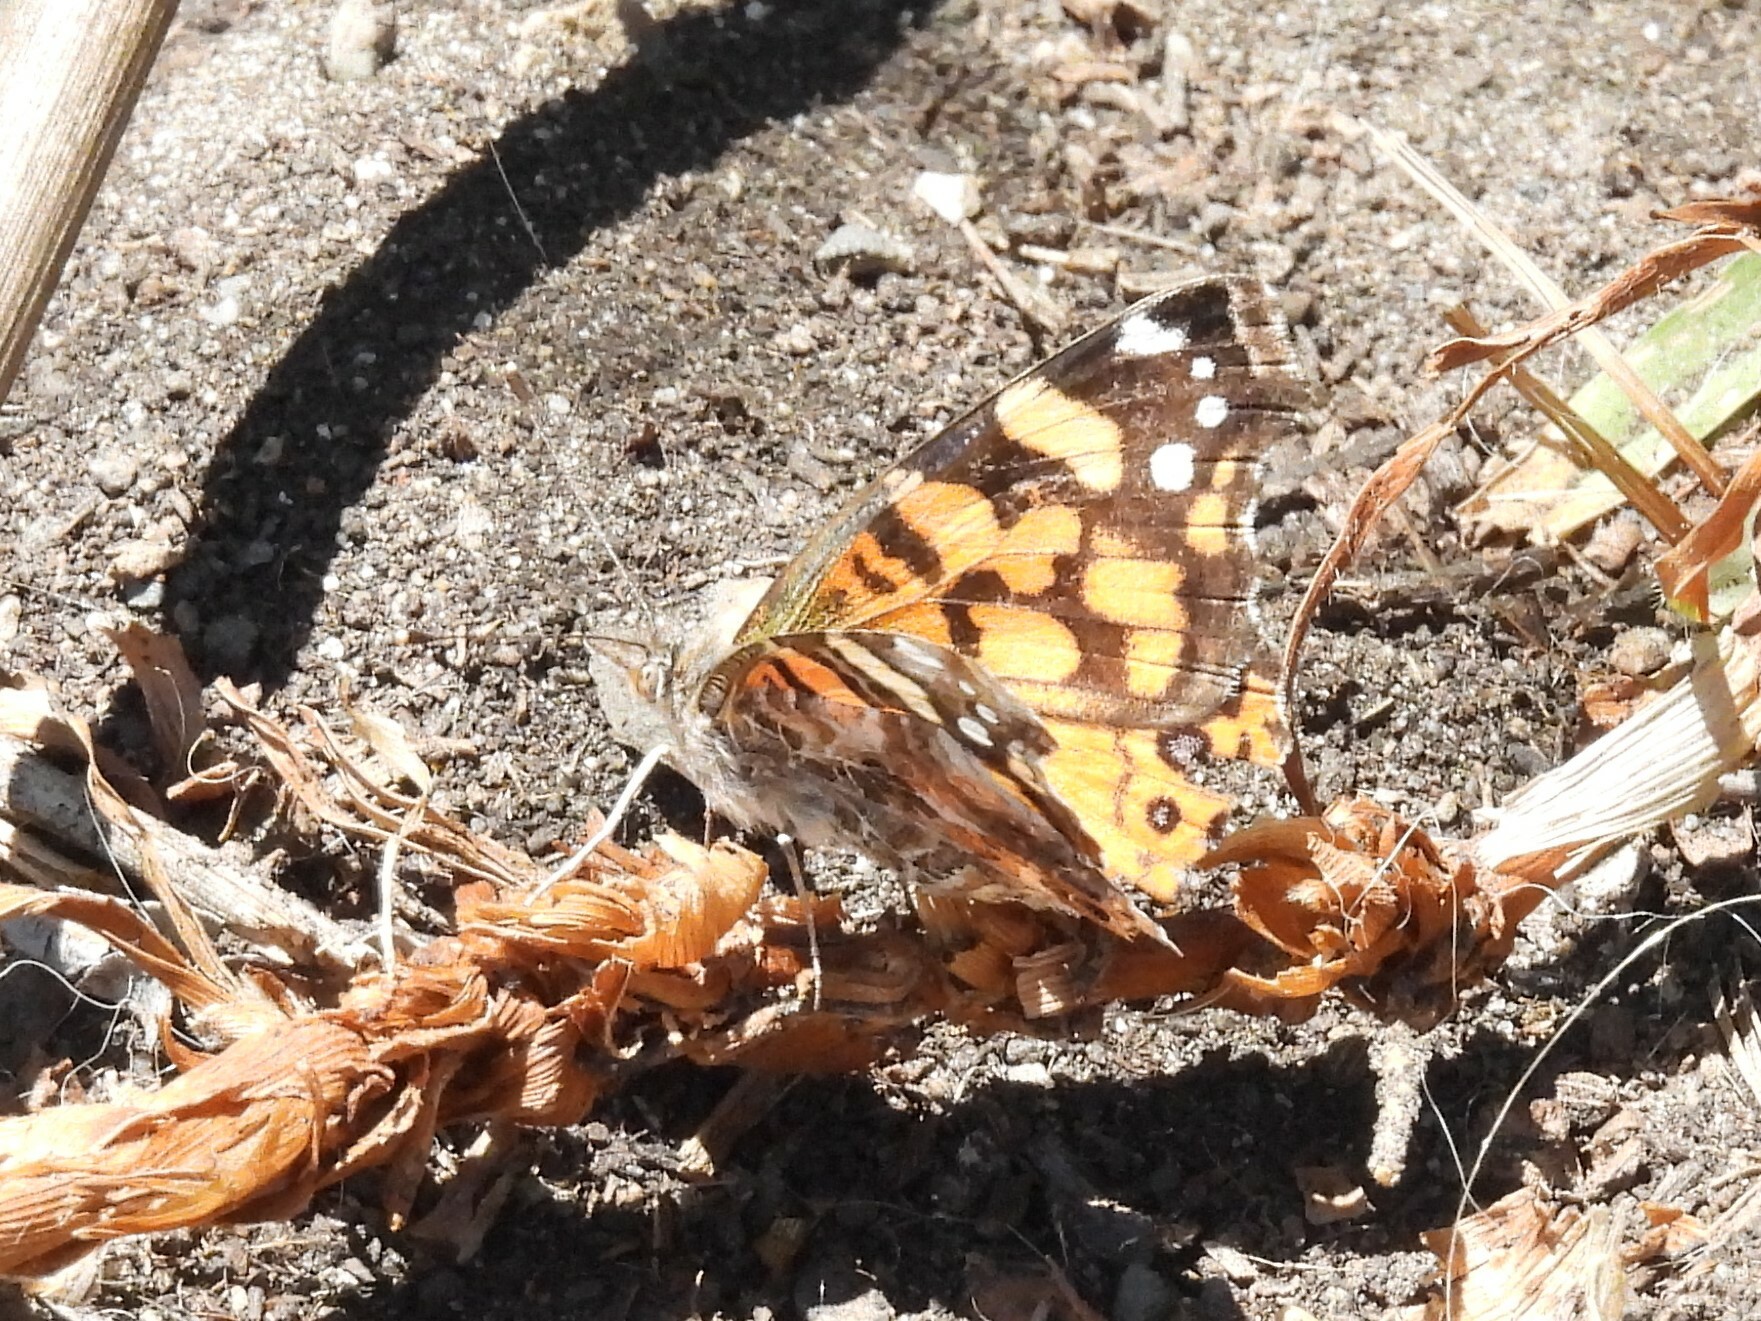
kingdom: Animalia
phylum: Arthropoda
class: Insecta
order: Lepidoptera
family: Nymphalidae
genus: Vanessa
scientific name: Vanessa annabella
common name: West coast lady
